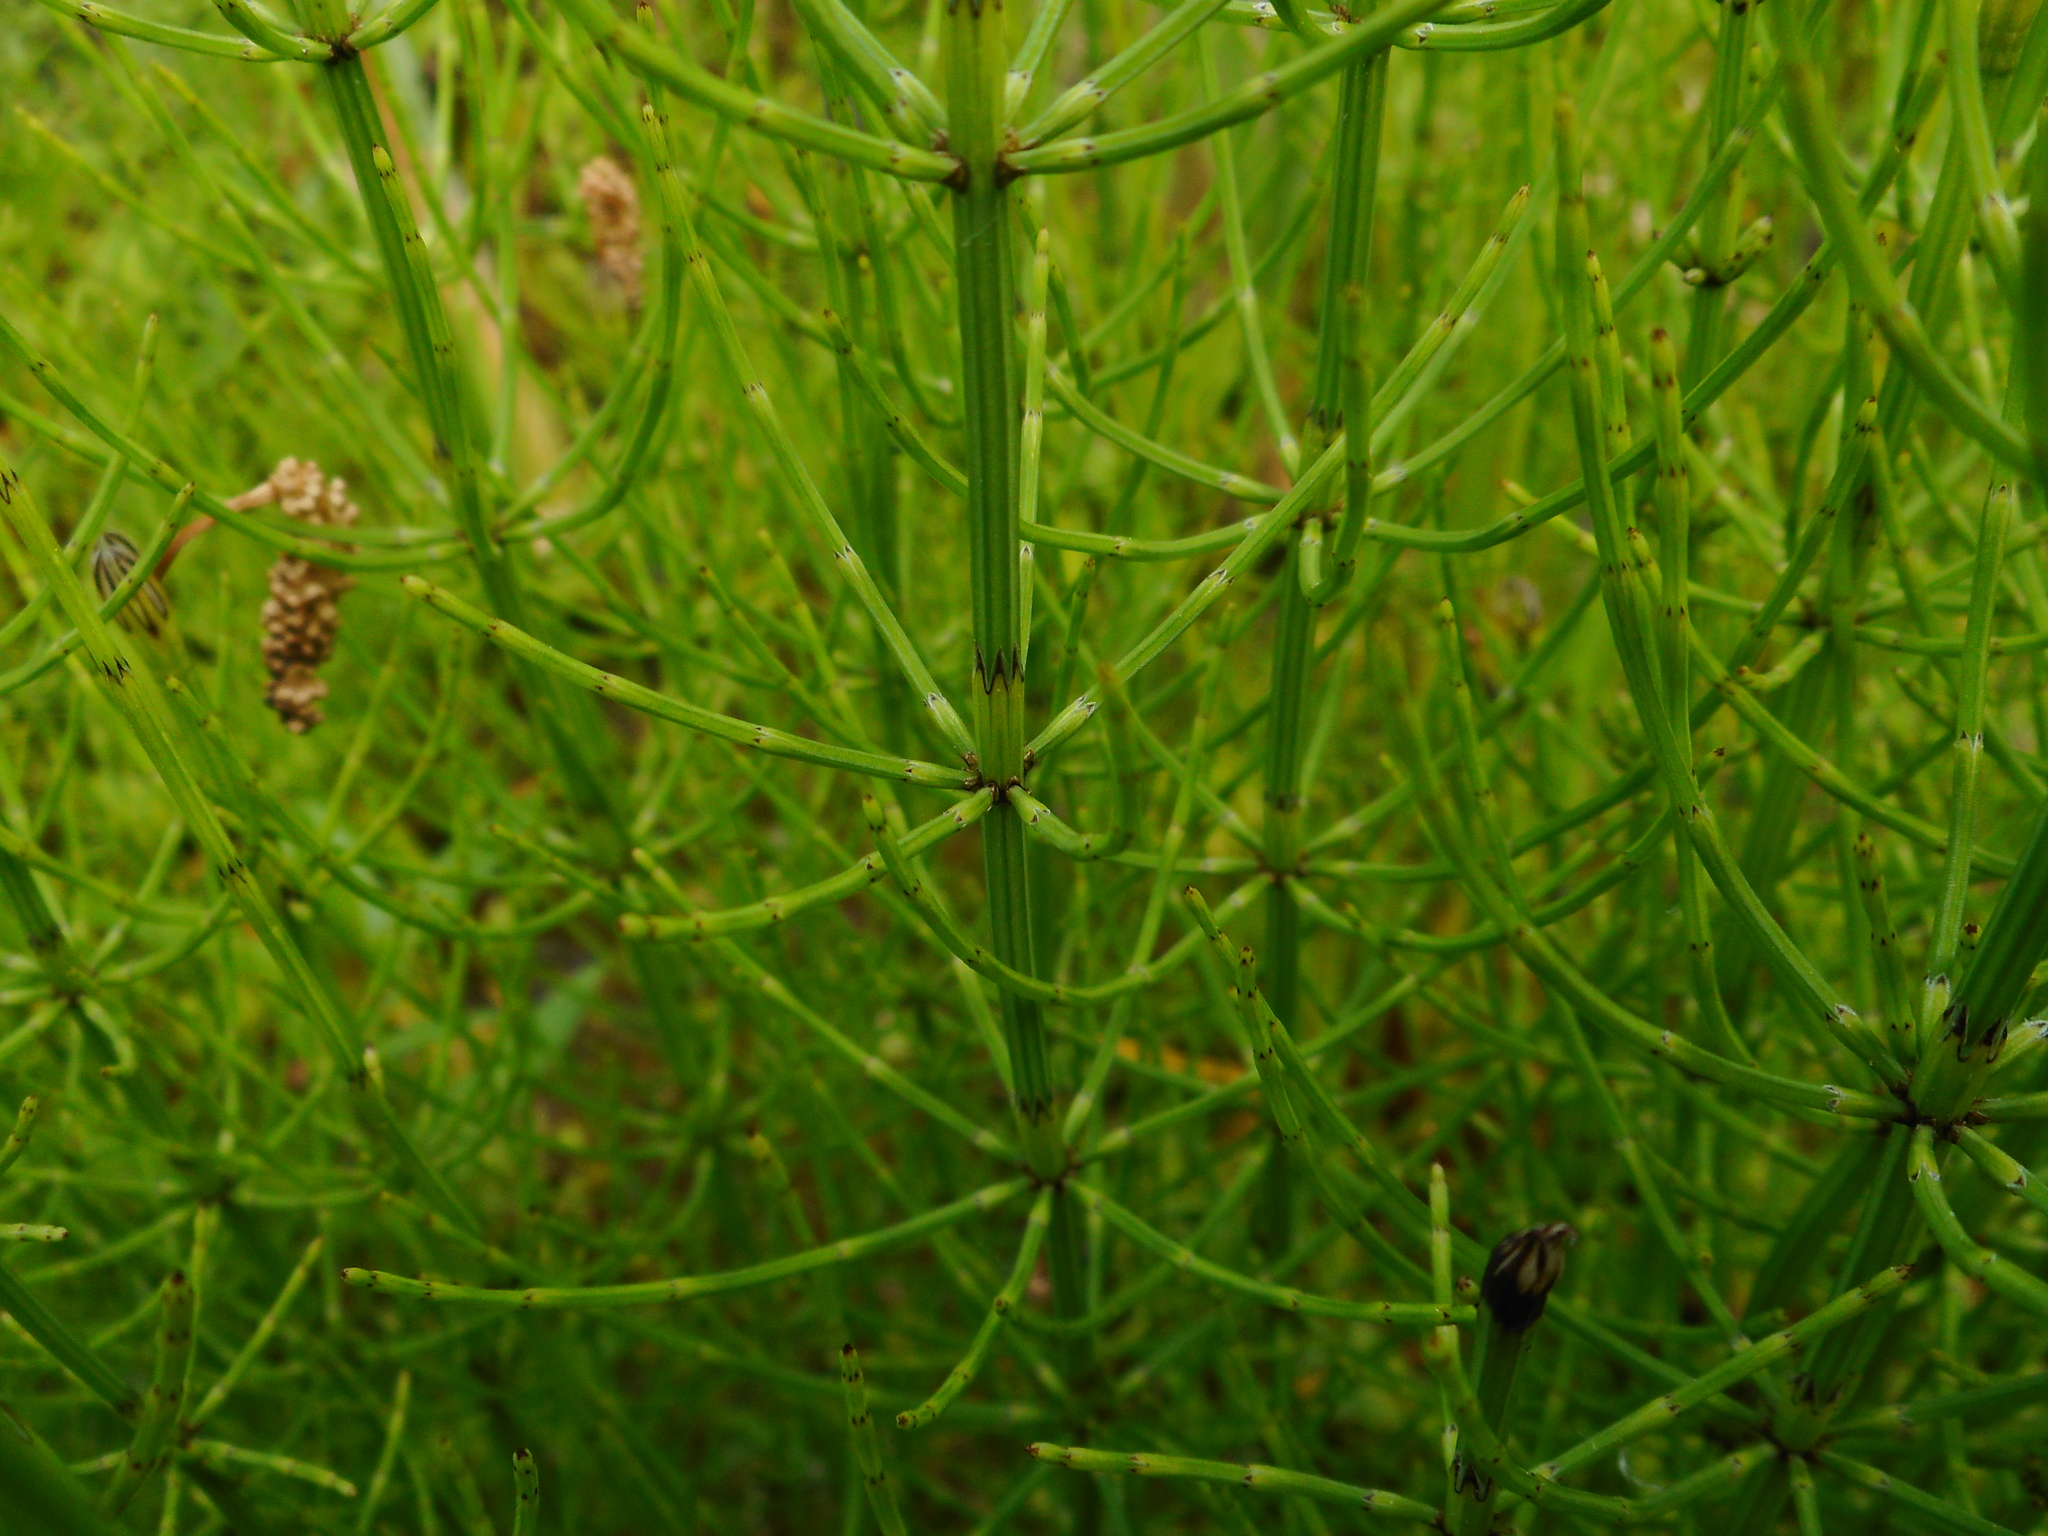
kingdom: Plantae
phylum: Tracheophyta
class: Polypodiopsida
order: Equisetales
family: Equisetaceae
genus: Equisetum
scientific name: Equisetum palustre
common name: Marsh horsetail
